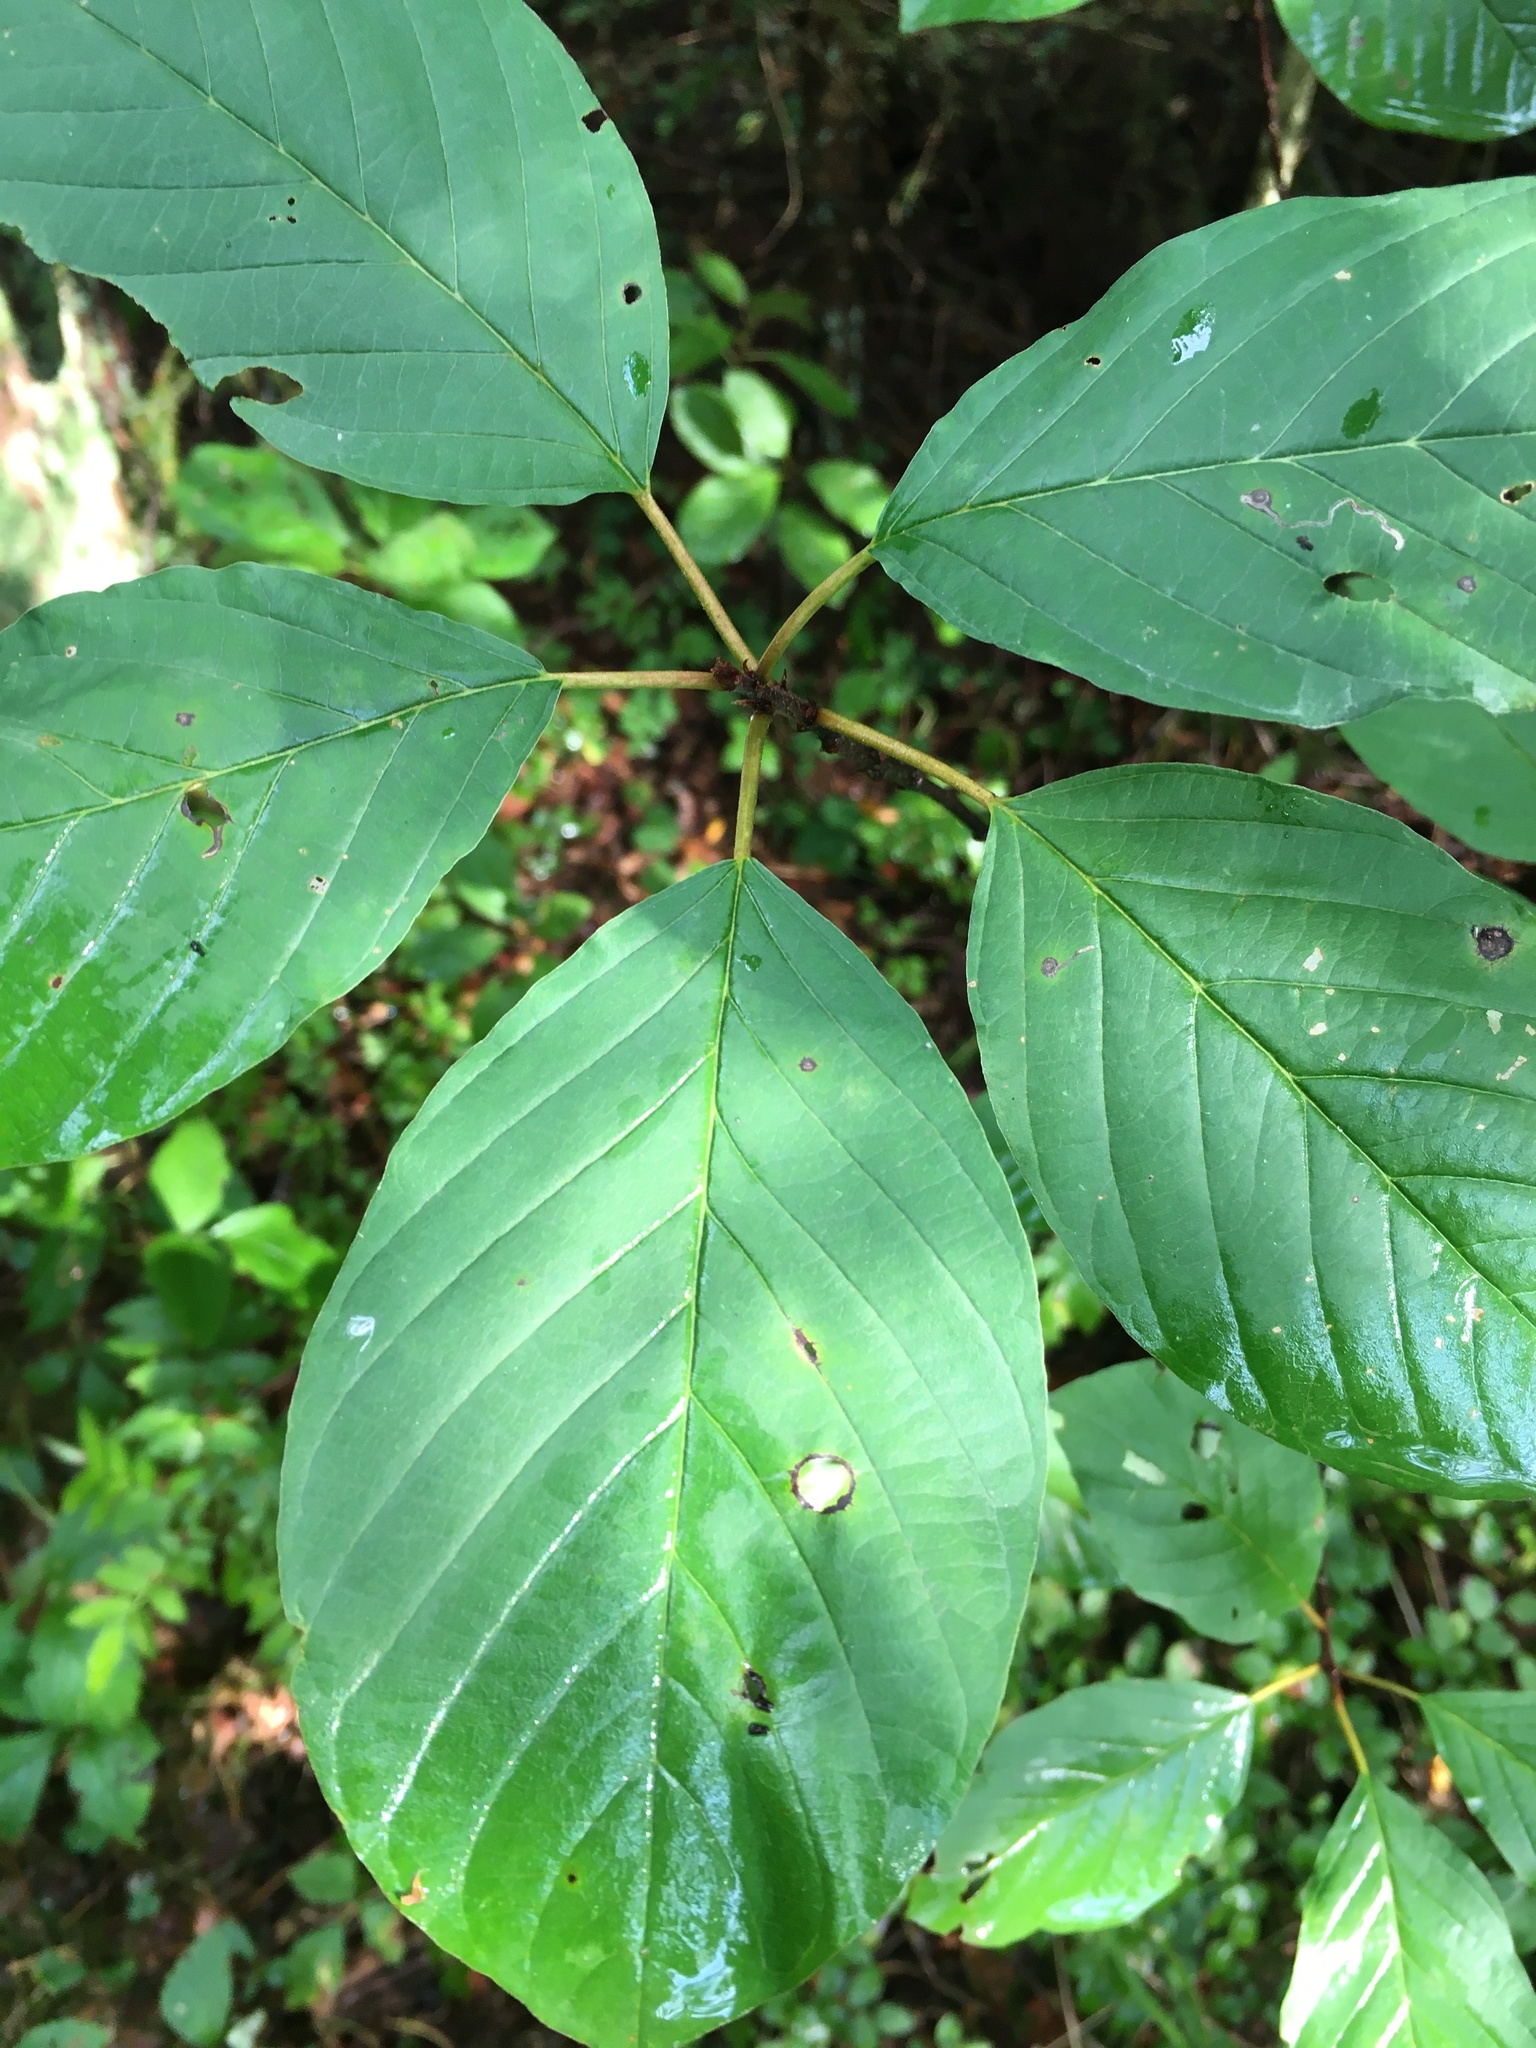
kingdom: Plantae
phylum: Tracheophyta
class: Magnoliopsida
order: Rosales
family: Rhamnaceae
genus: Frangula
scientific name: Frangula alnus
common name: Alder buckthorn
